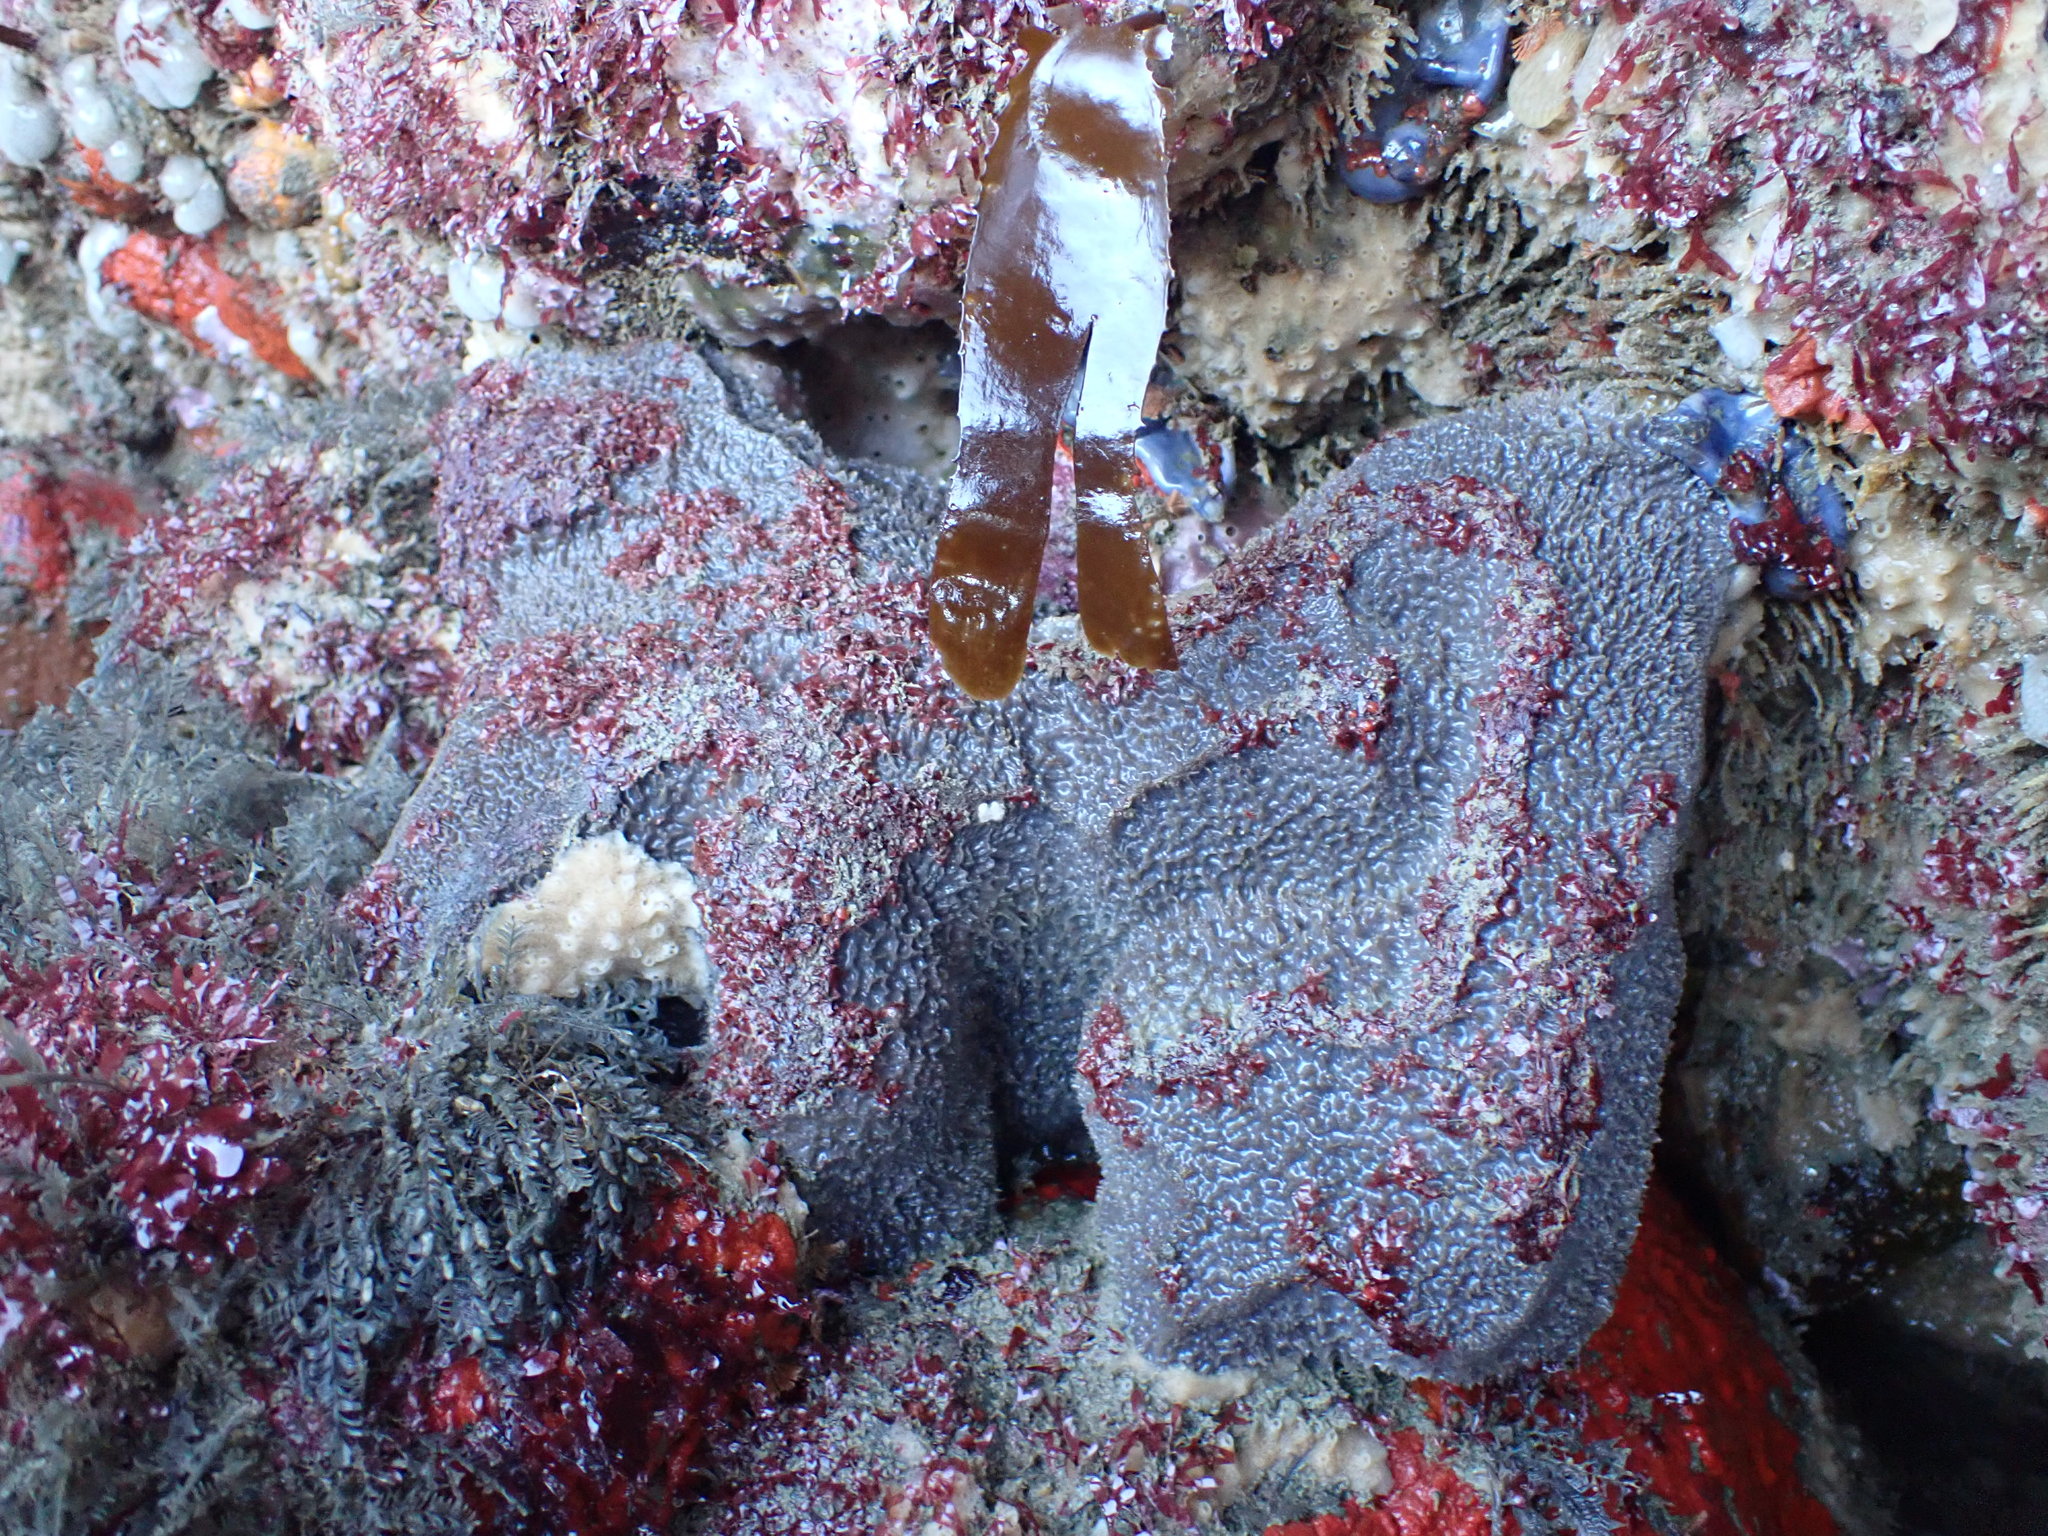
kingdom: Animalia
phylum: Porifera
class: Demospongiae
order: Tetractinellida
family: Ancorinidae
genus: Stelletta
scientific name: Stelletta sandalinum
